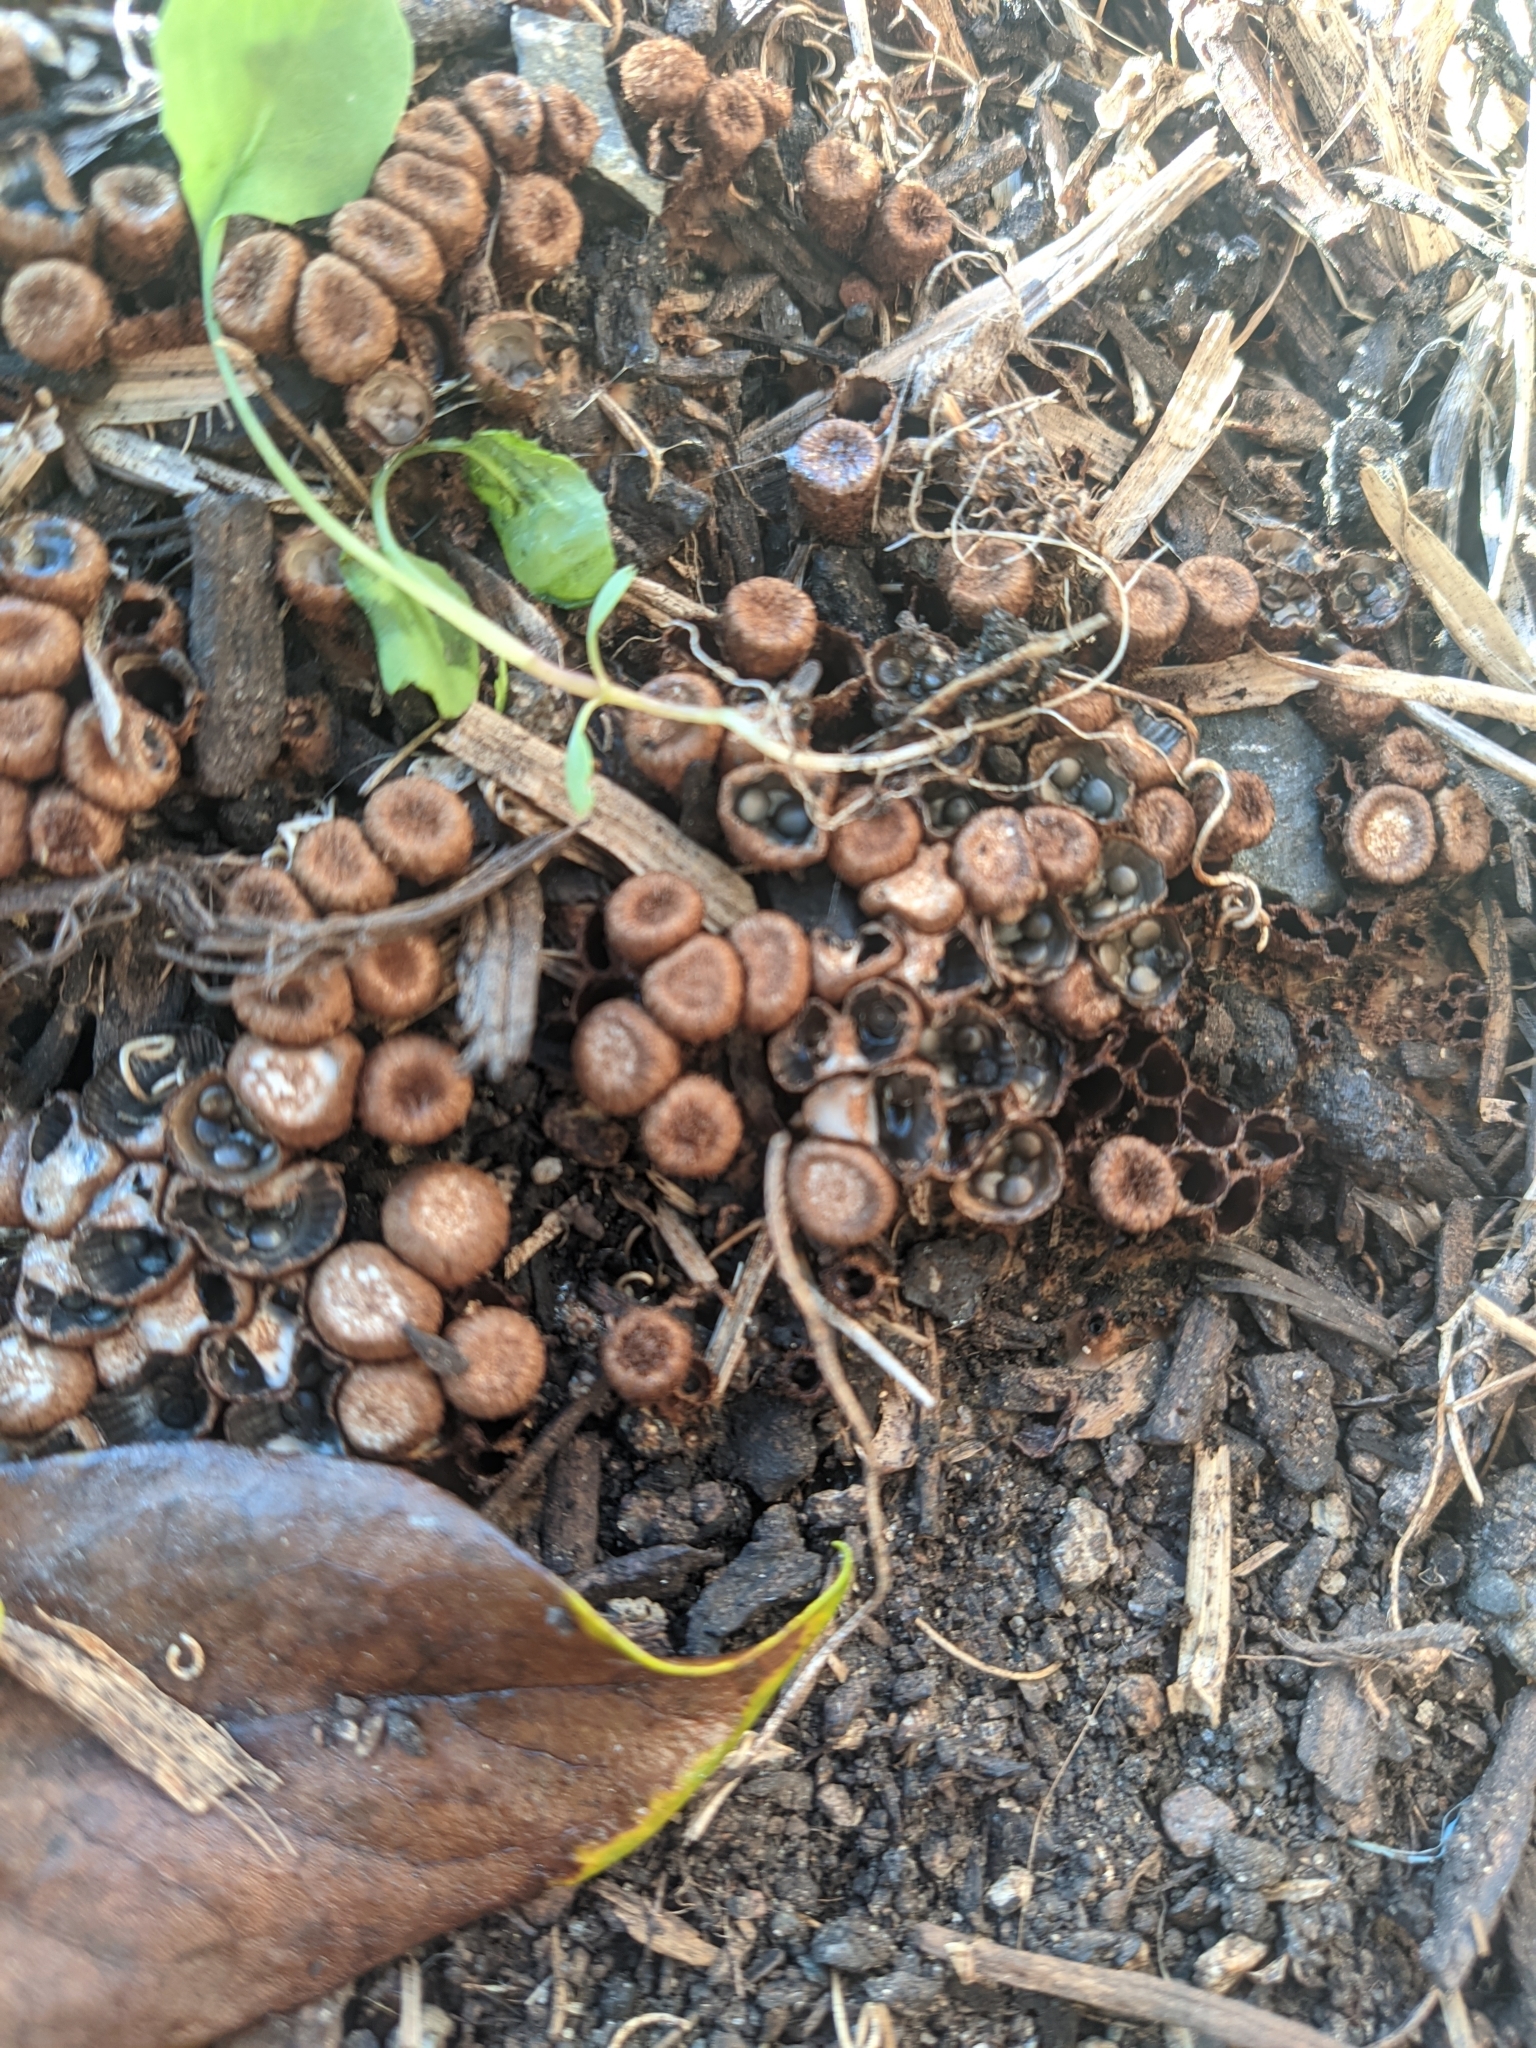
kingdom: Fungi
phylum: Basidiomycota
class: Agaricomycetes
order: Agaricales
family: Agaricaceae
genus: Cyathus
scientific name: Cyathus olla
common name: Field bird's nest
